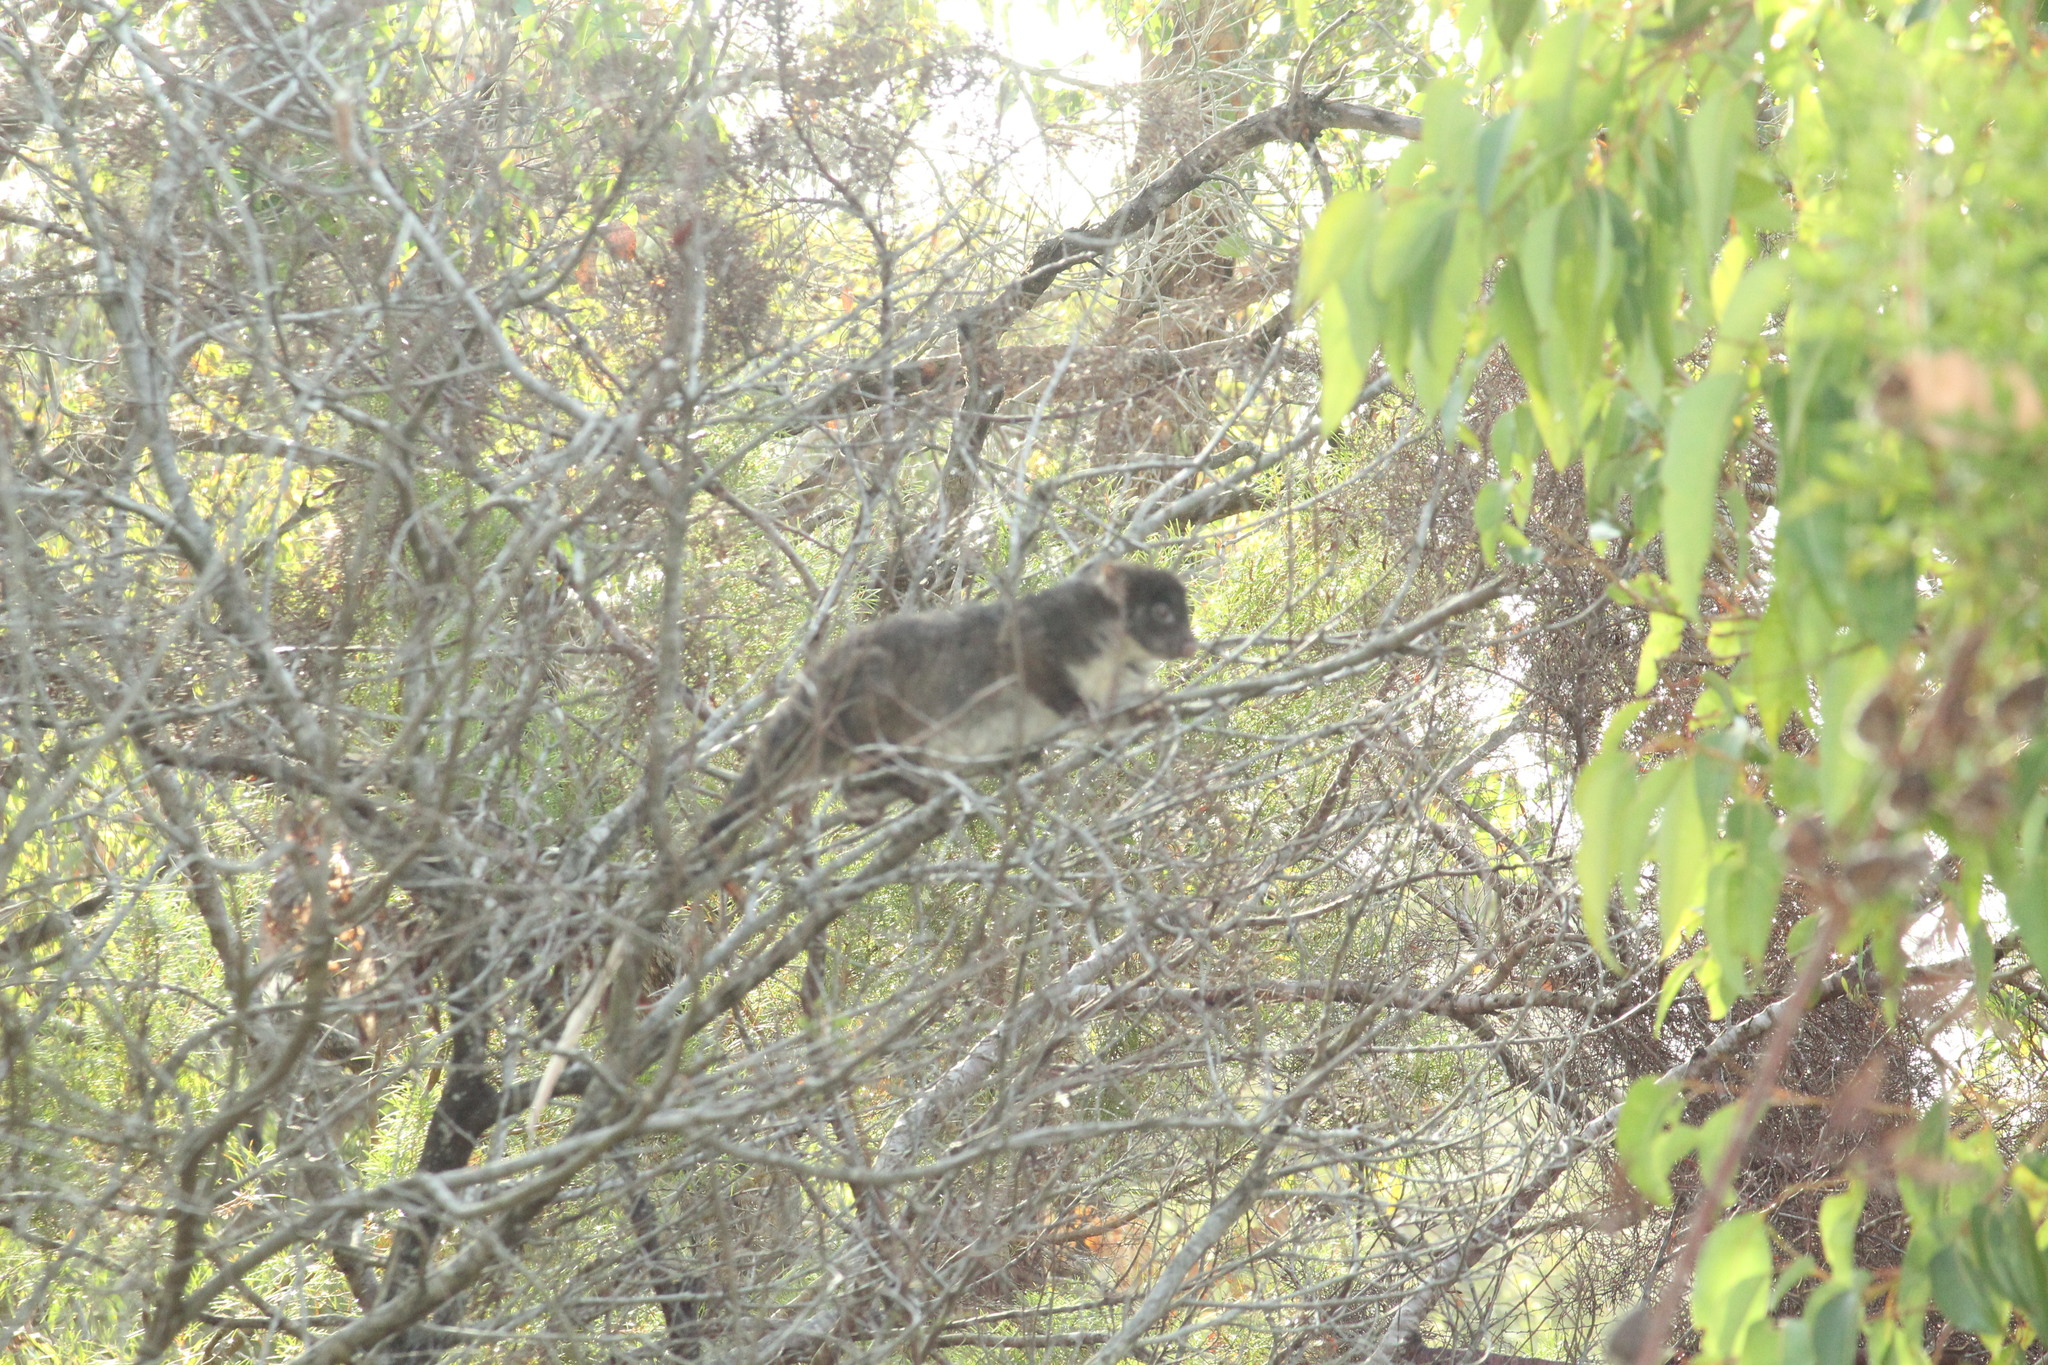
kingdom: Animalia
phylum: Chordata
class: Mammalia
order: Diprotodontia
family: Pseudocheiridae
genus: Pseudocheirus
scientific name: Pseudocheirus peregrinus
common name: Common ringtail possum
